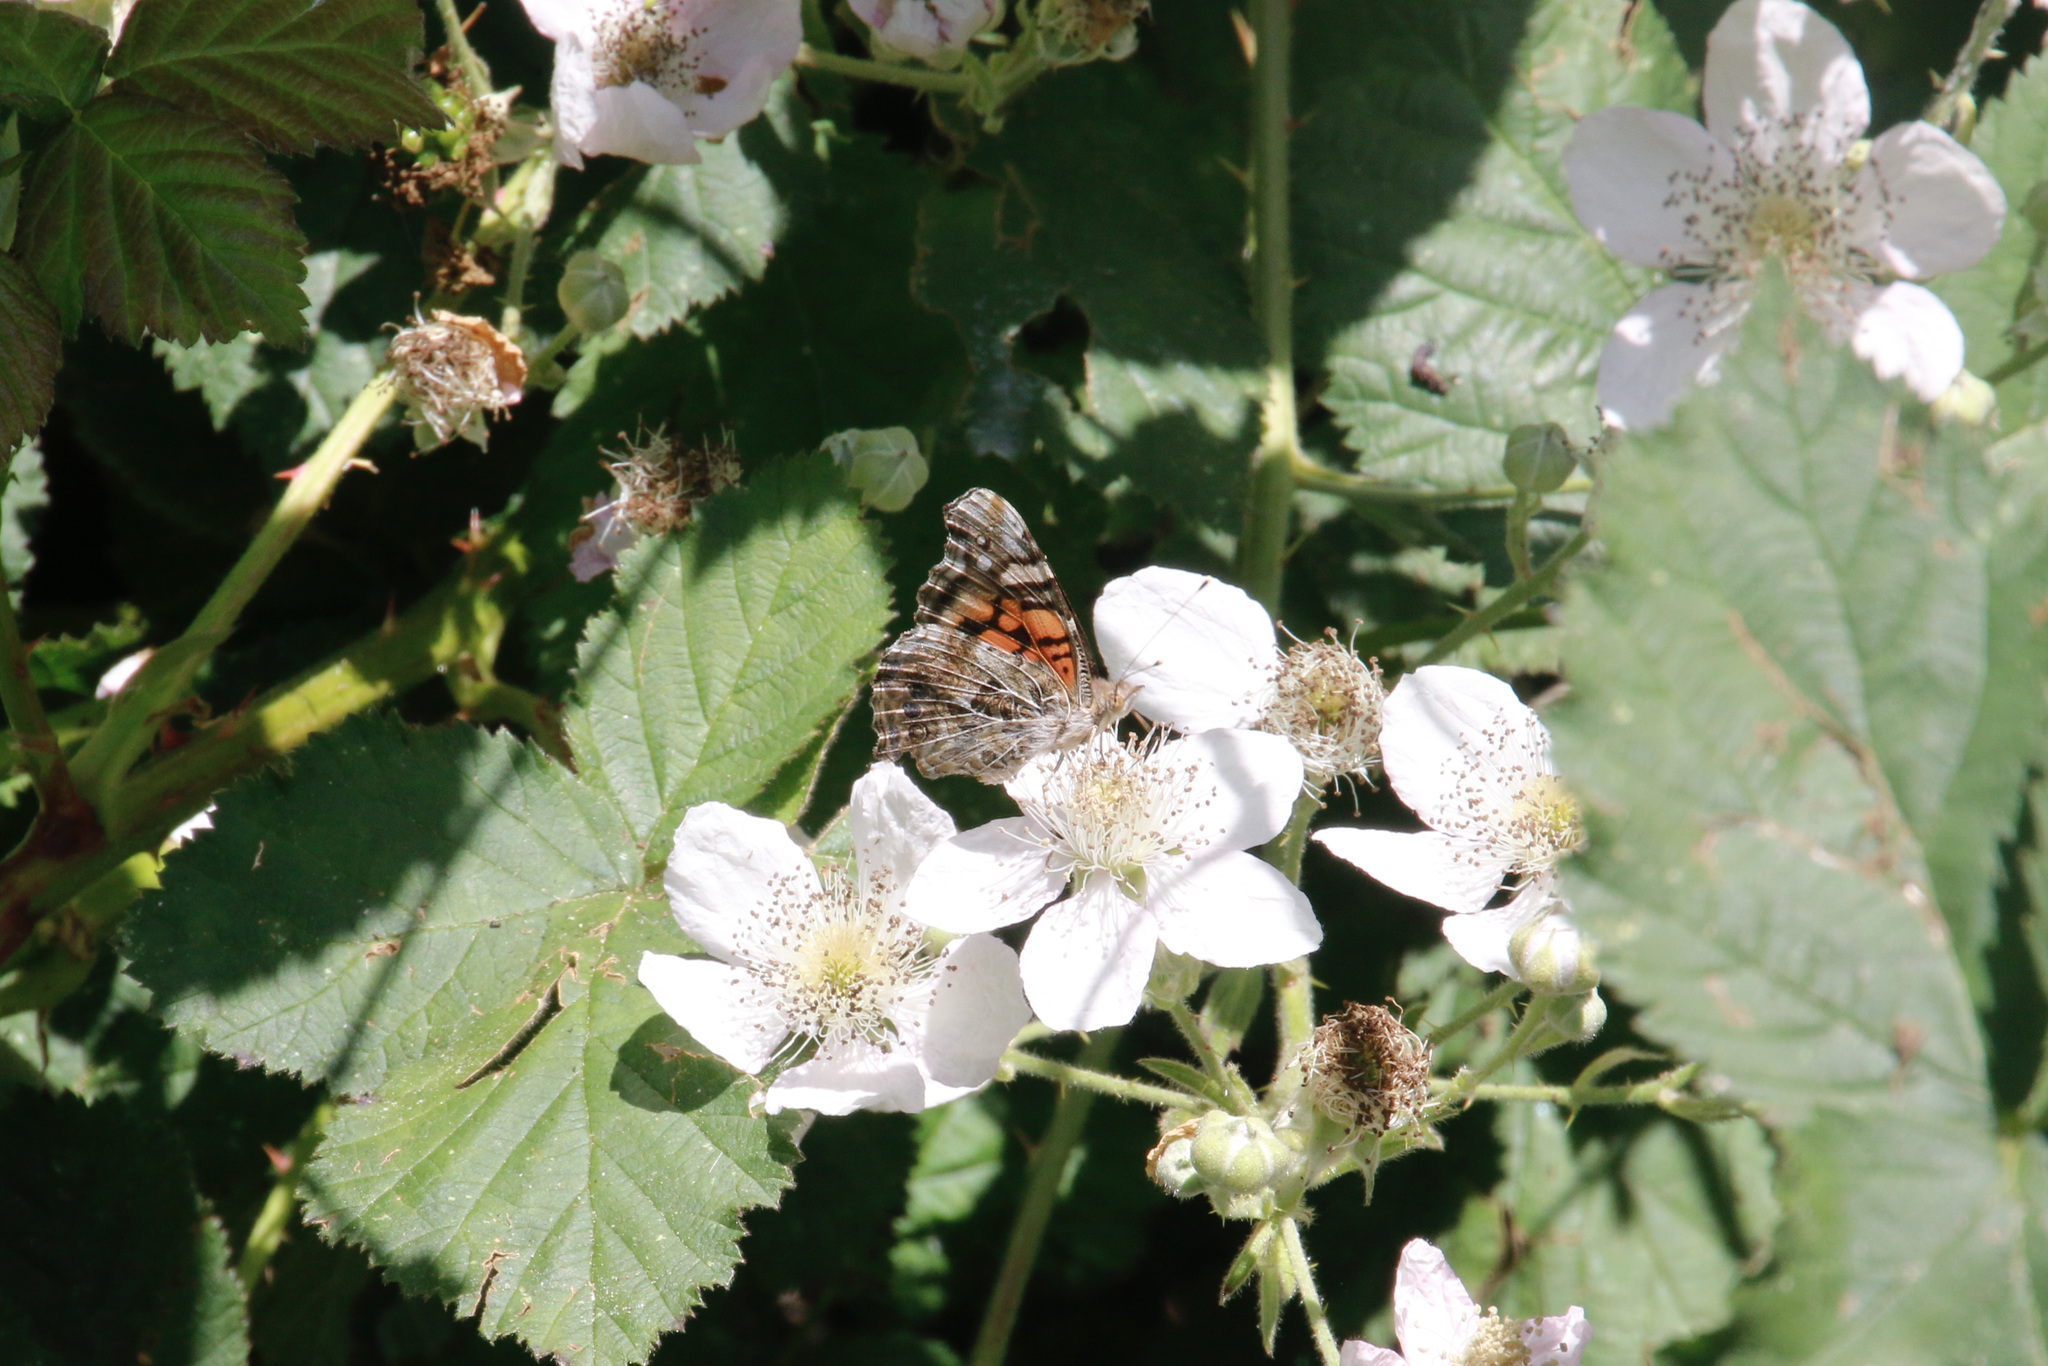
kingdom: Animalia
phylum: Arthropoda
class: Insecta
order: Lepidoptera
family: Nymphalidae
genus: Vanessa
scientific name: Vanessa annabella
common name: West coast lady
